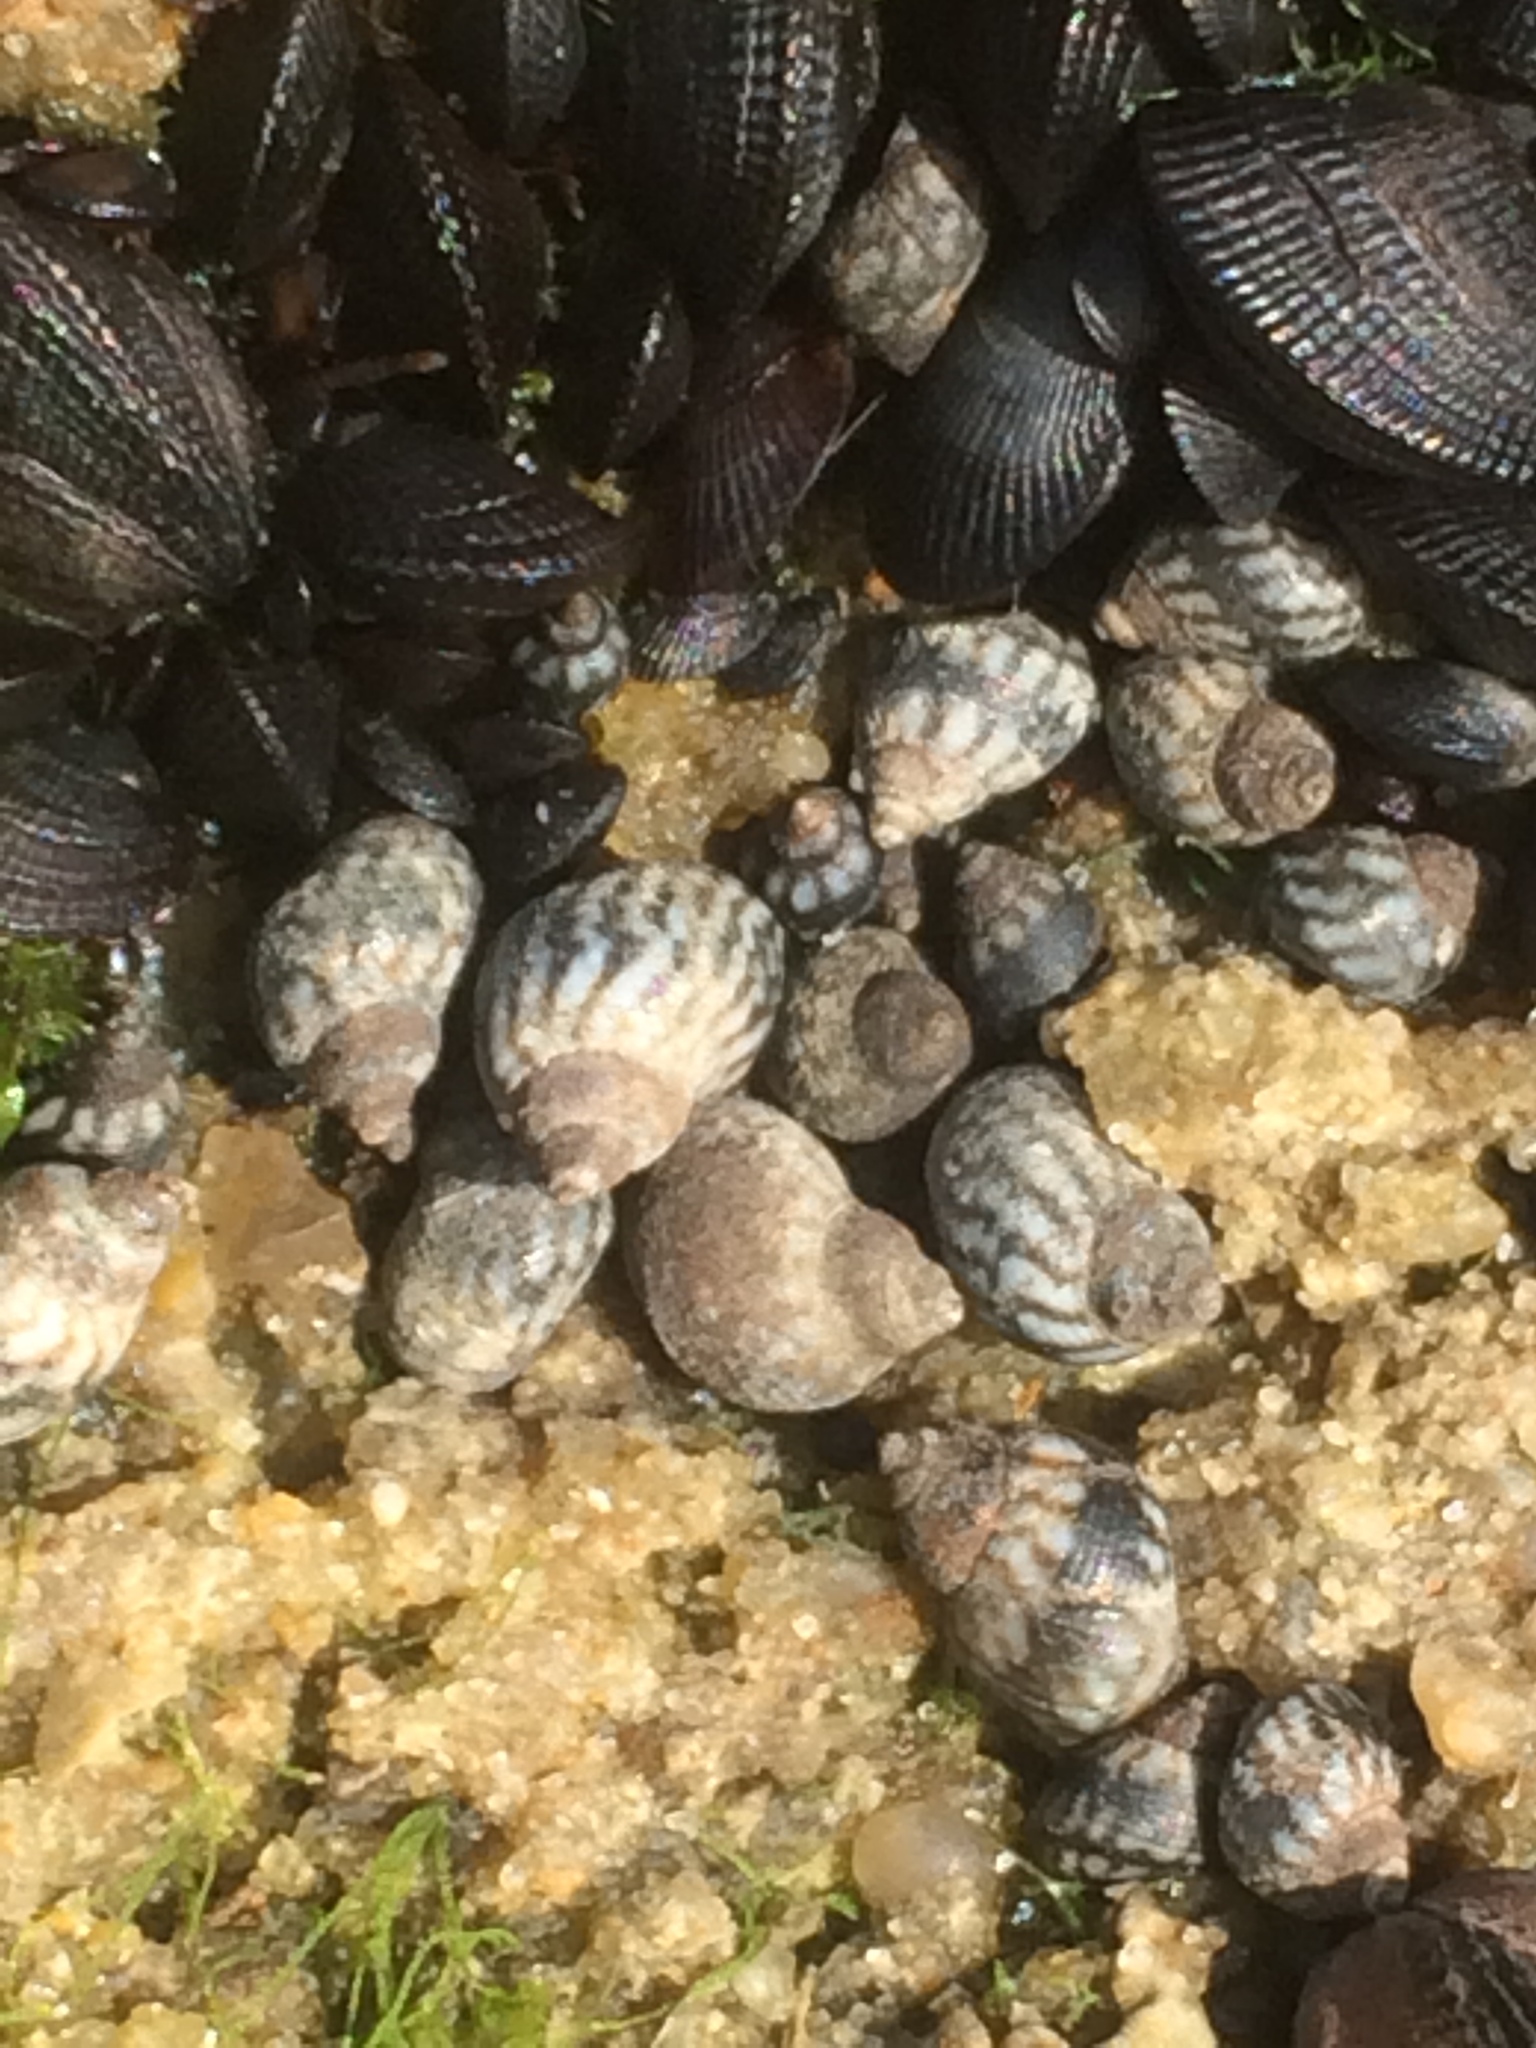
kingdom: Animalia
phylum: Mollusca
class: Gastropoda
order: Littorinimorpha
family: Littorinidae
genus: Echinolittorina
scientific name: Echinolittorina placida
